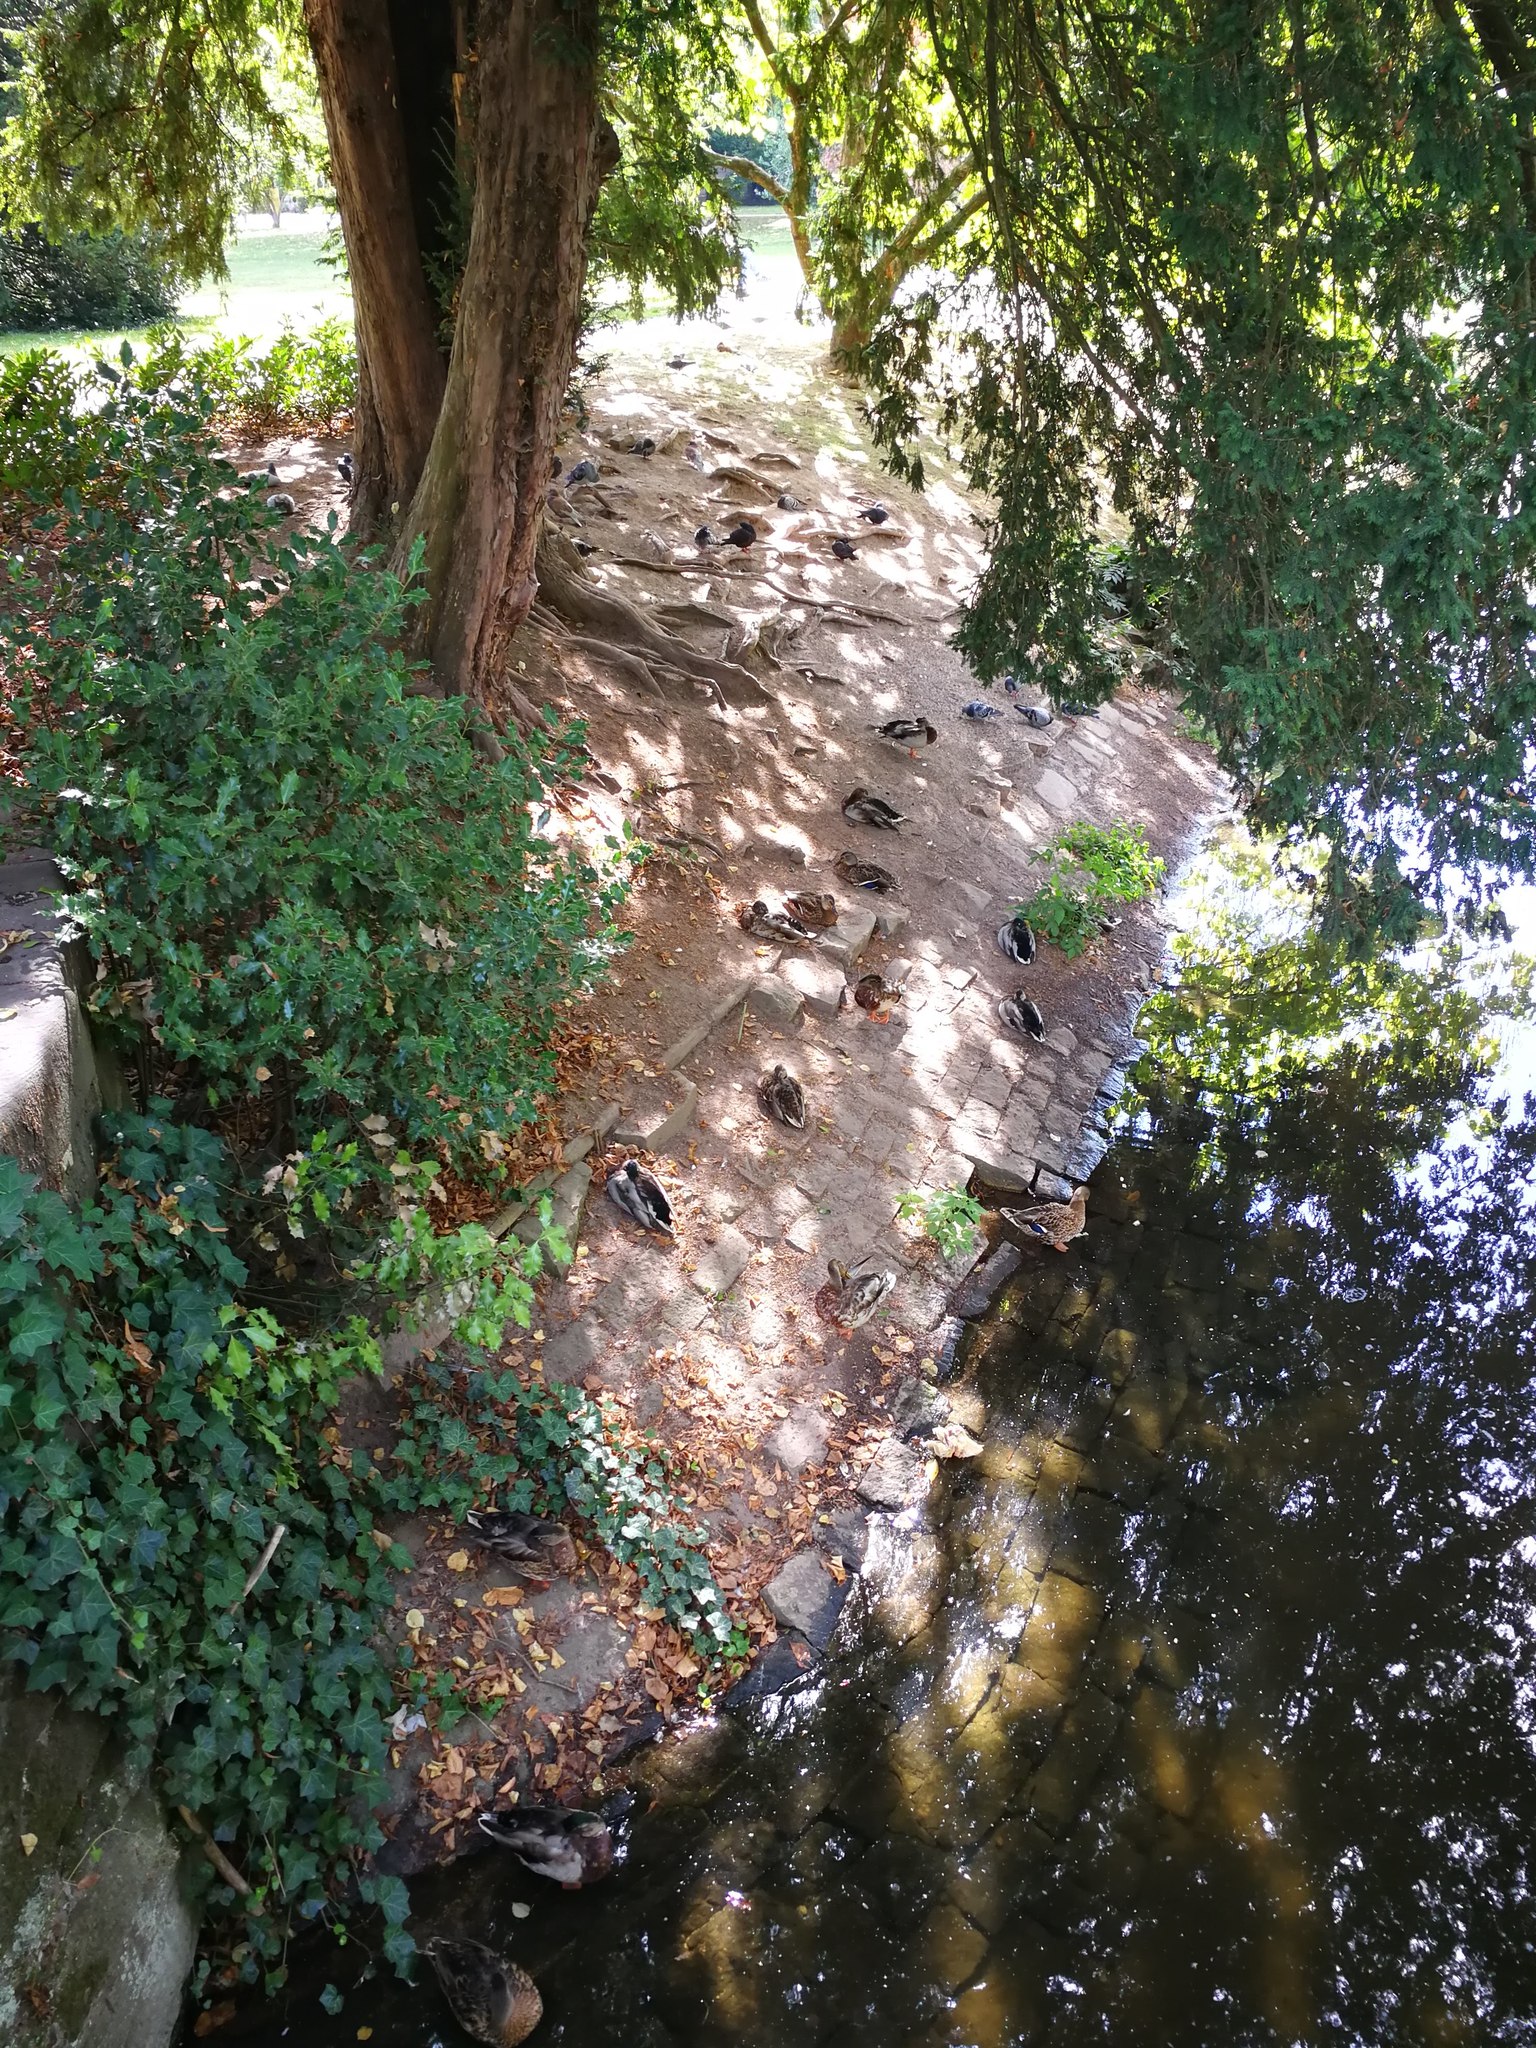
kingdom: Animalia
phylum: Chordata
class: Aves
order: Anseriformes
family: Anatidae
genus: Anas
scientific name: Anas platyrhynchos
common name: Mallard
